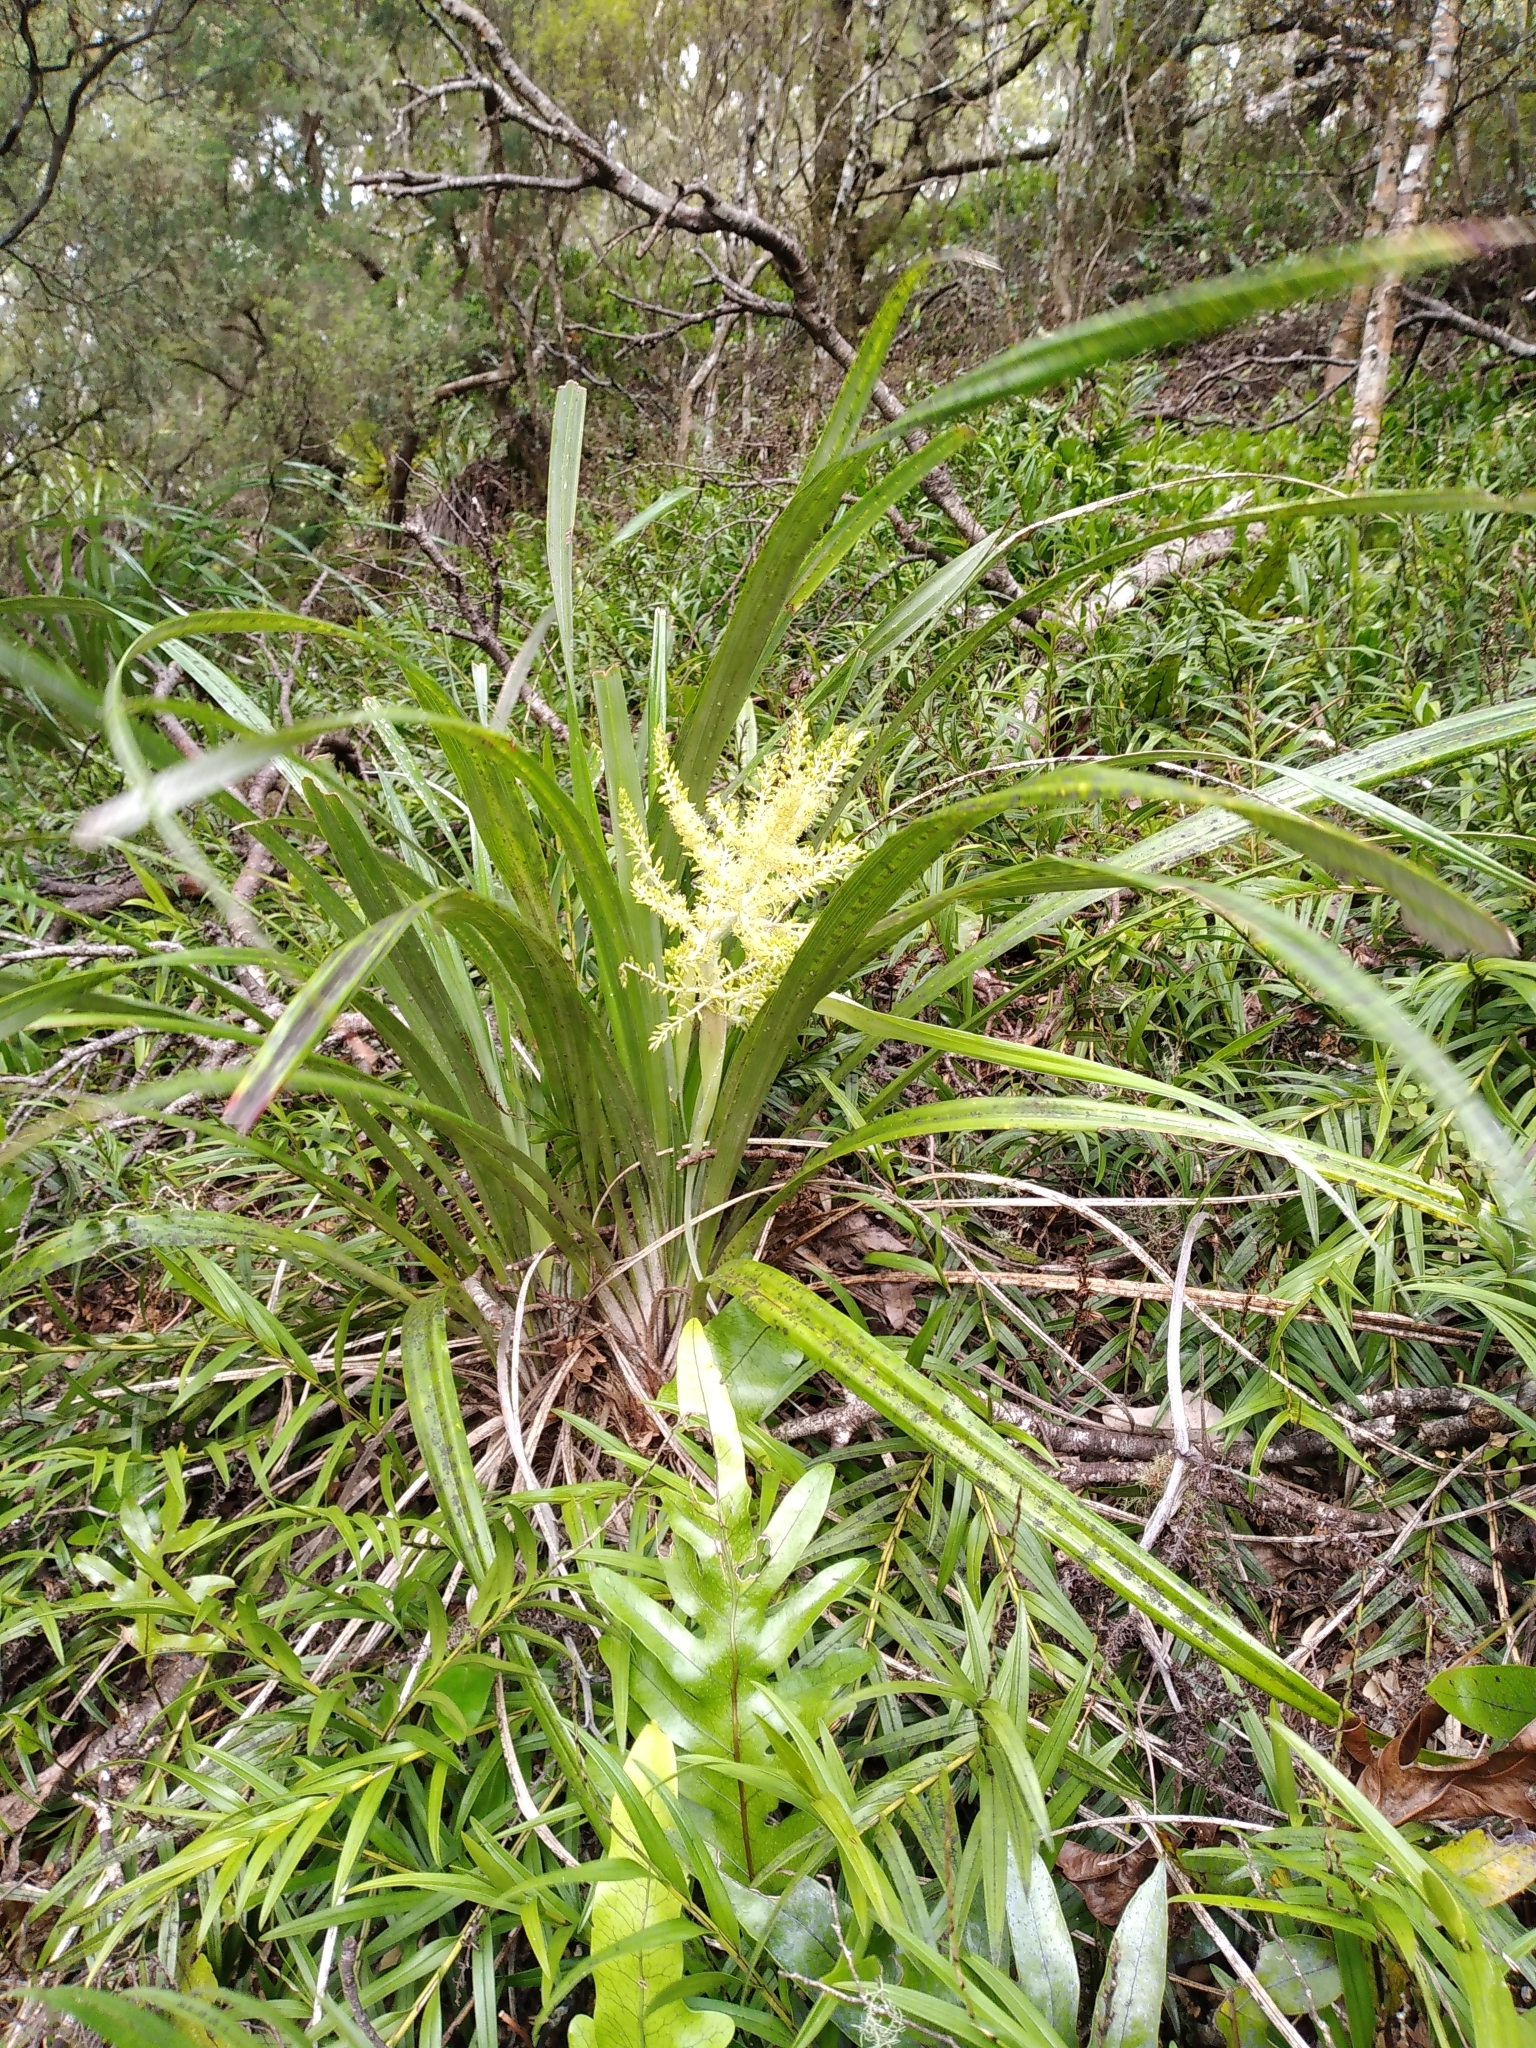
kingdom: Plantae
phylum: Tracheophyta
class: Liliopsida
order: Asparagales
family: Asteliaceae
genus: Astelia
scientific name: Astelia solandri
